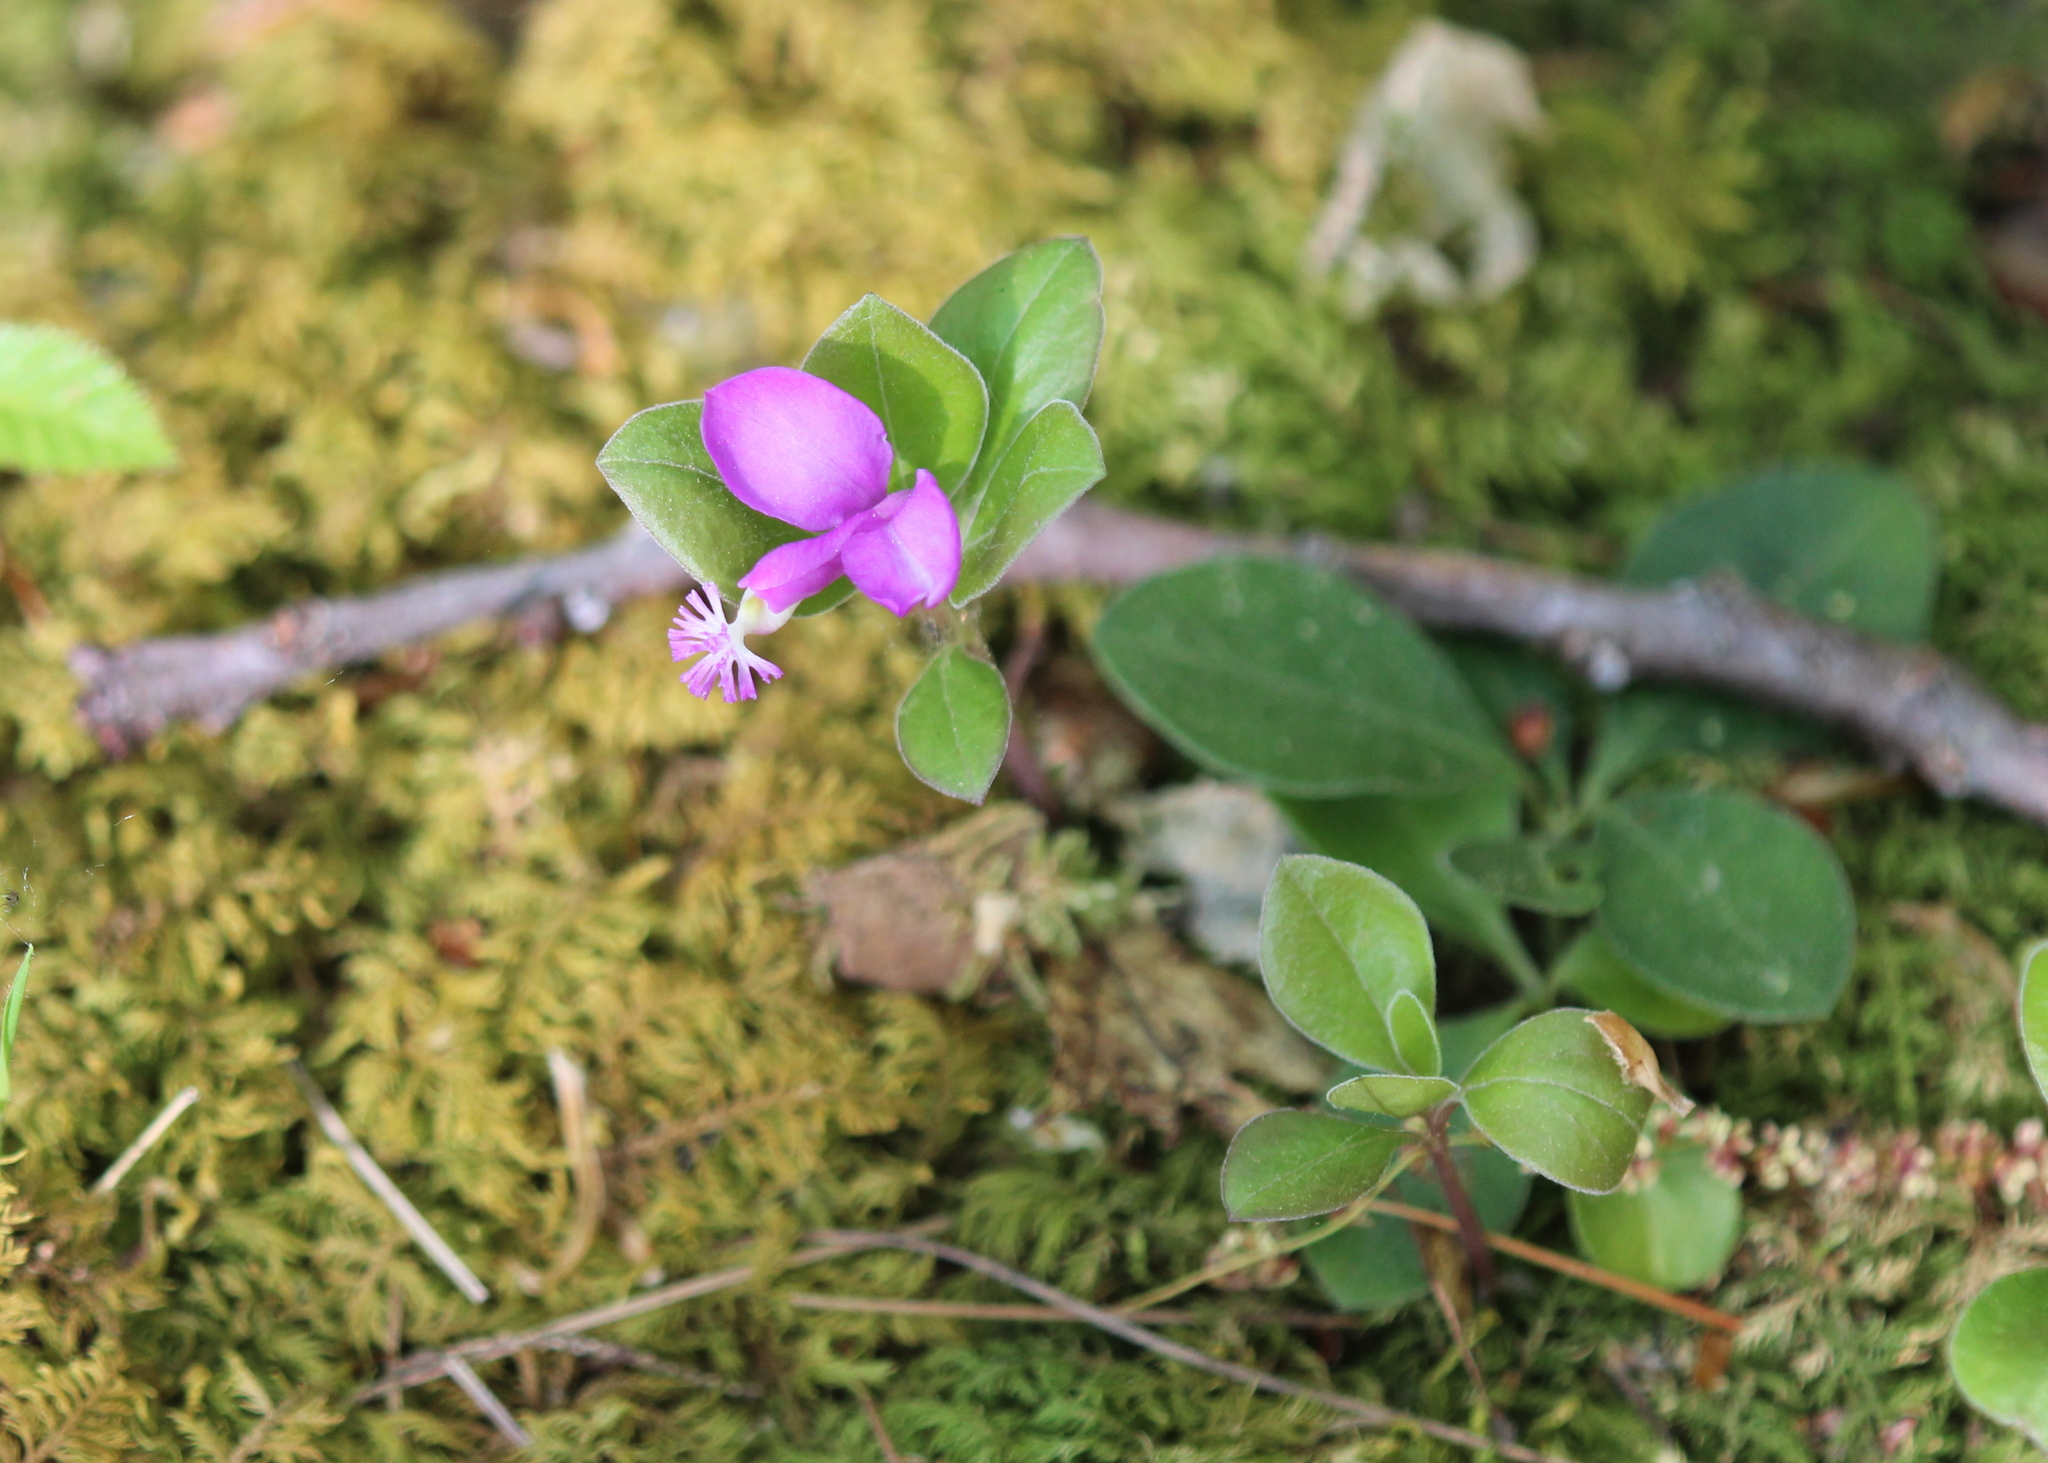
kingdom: Plantae
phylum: Tracheophyta
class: Magnoliopsida
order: Fabales
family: Polygalaceae
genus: Polygaloides
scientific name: Polygaloides paucifolia
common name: Bird-on-the-wing
